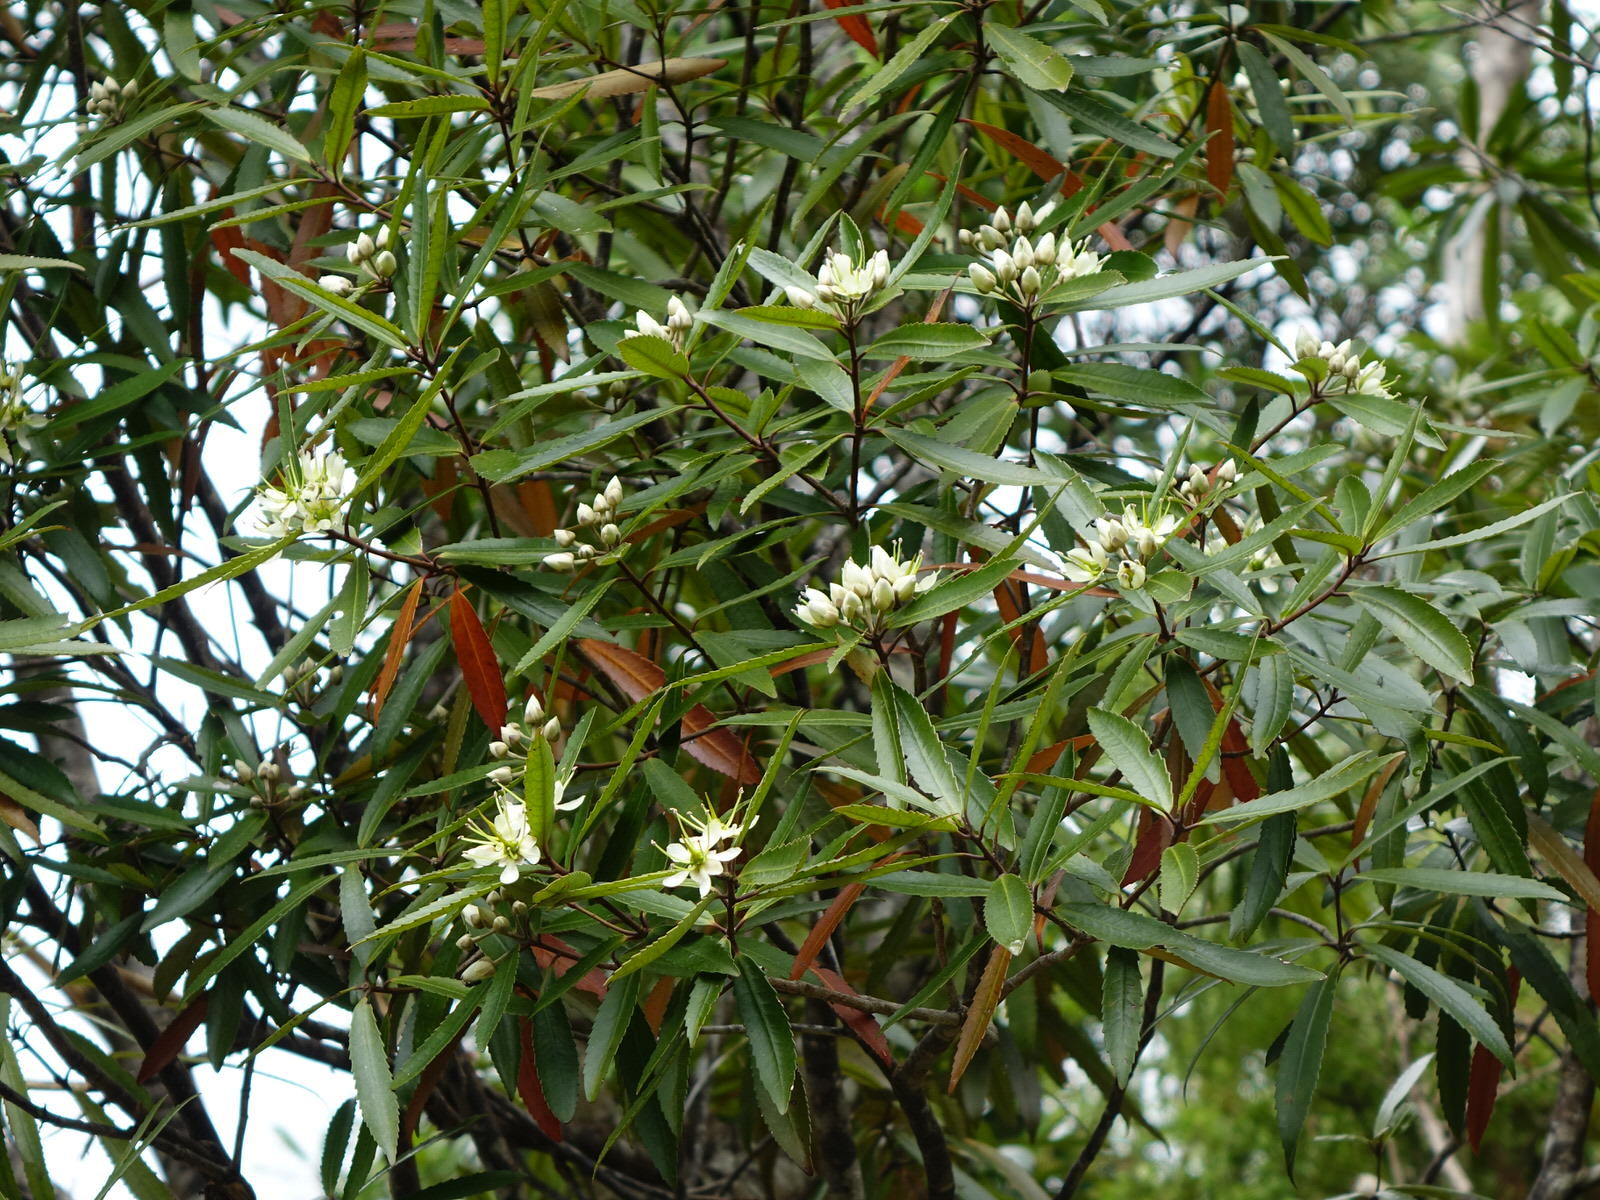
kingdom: Plantae
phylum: Tracheophyta
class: Magnoliopsida
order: Crossosomatales
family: Ixerbaceae
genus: Ixerba
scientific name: Ixerba brexioides
